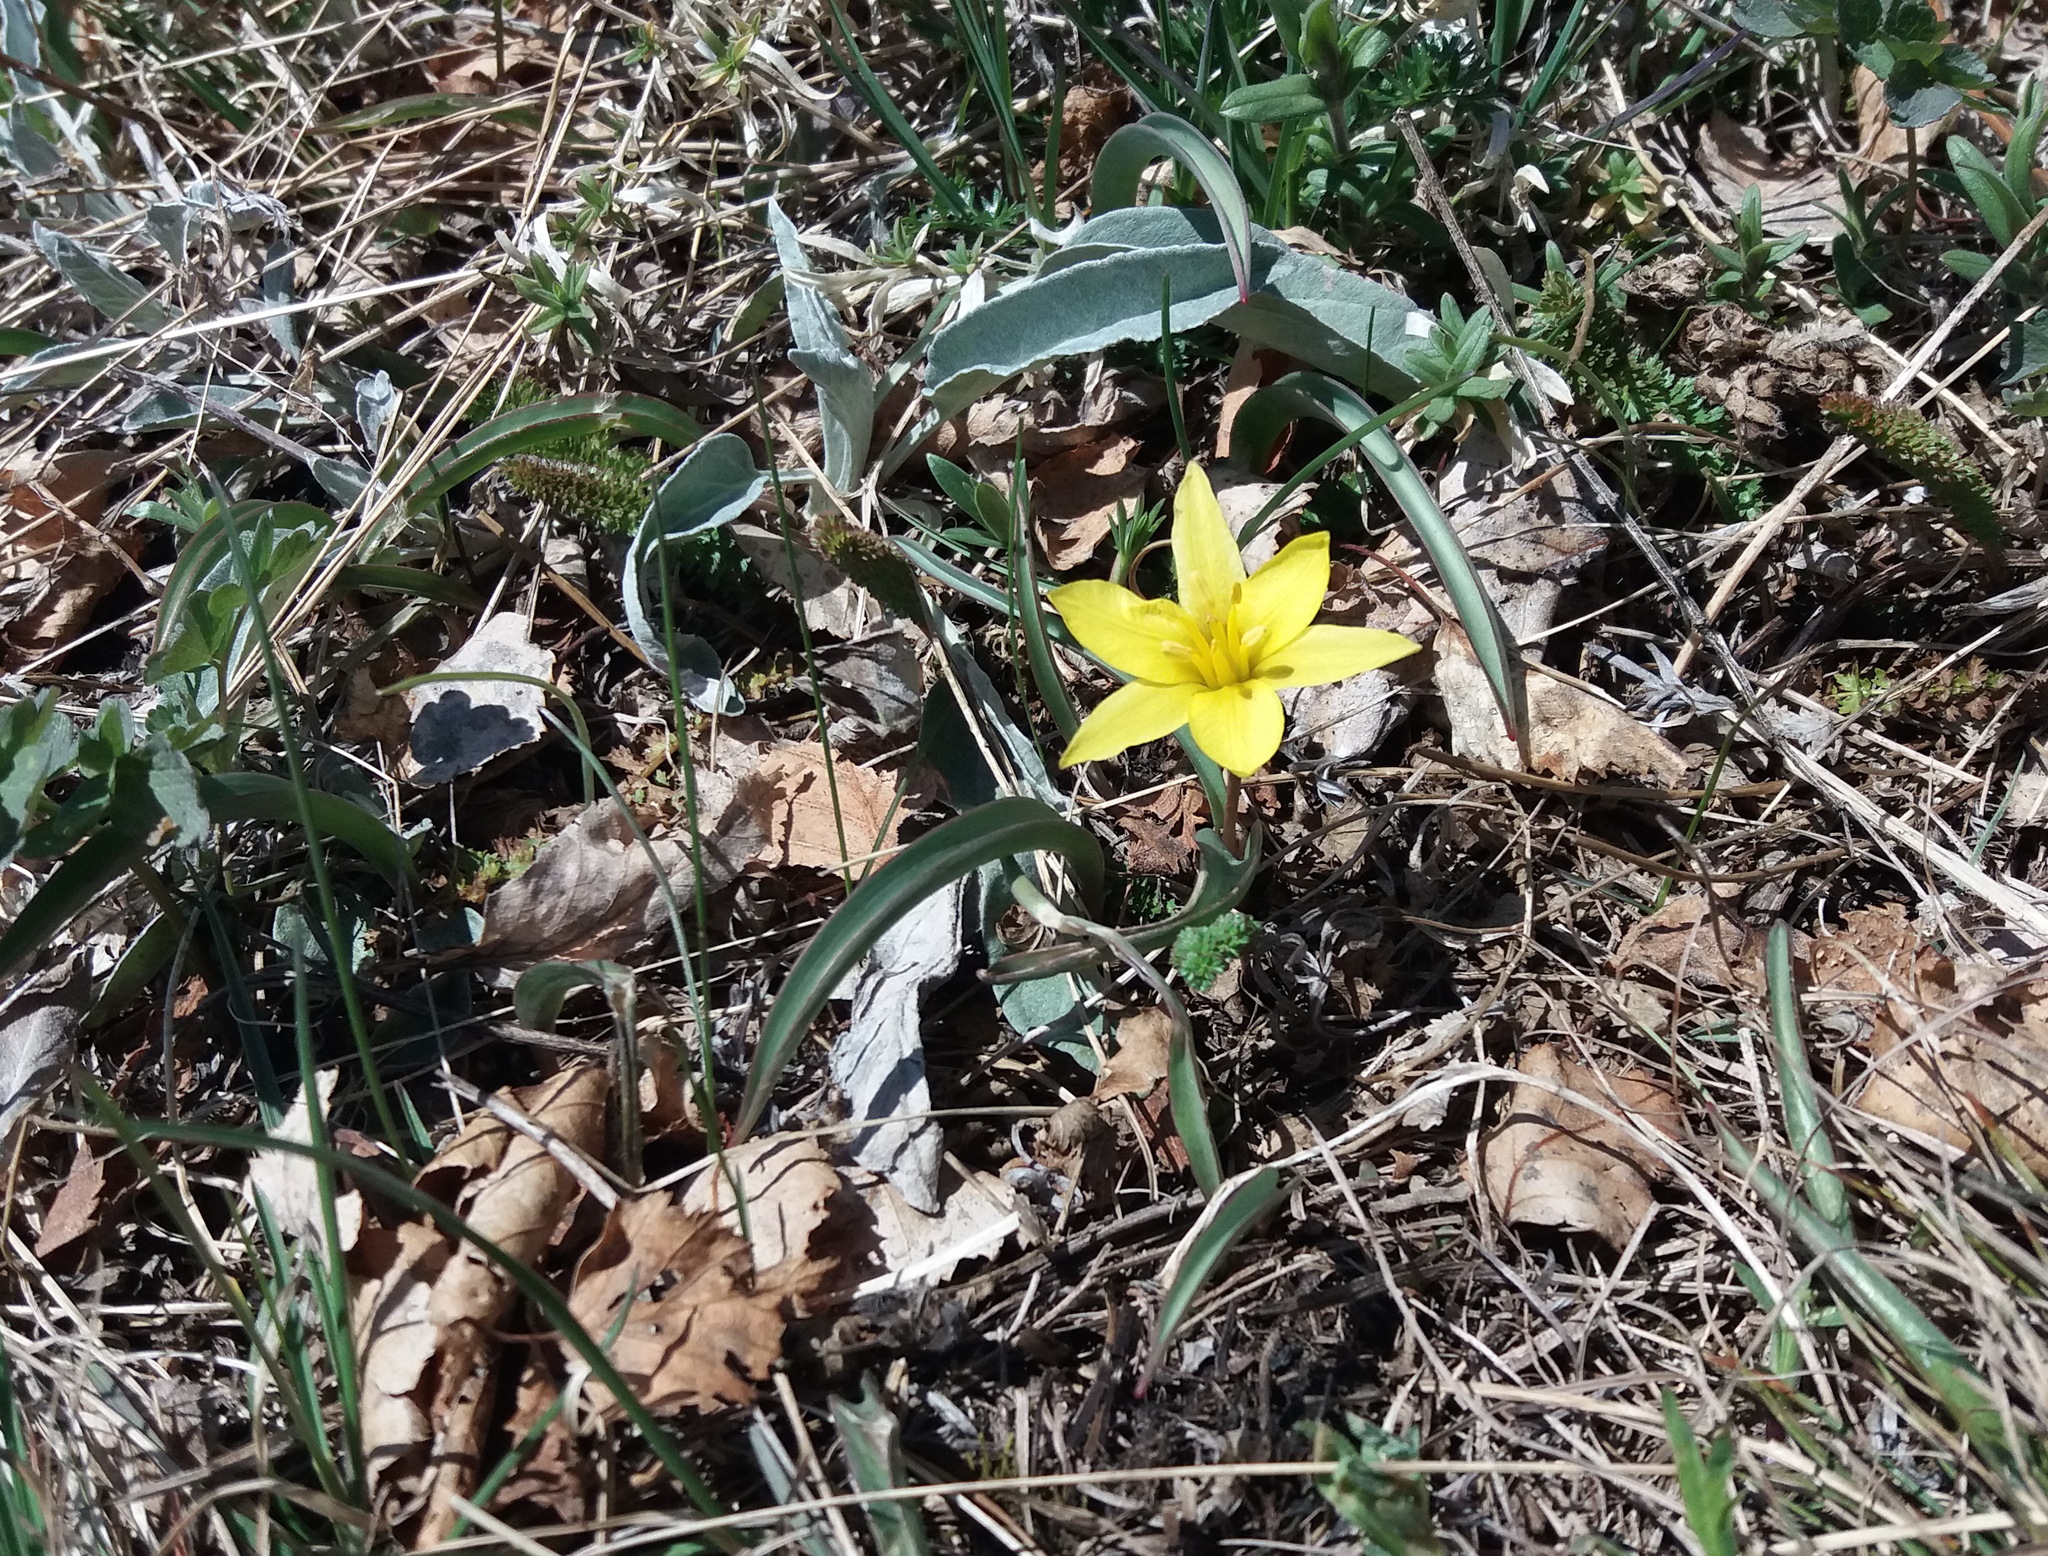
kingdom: Plantae
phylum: Tracheophyta
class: Liliopsida
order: Liliales
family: Liliaceae
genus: Tulipa
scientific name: Tulipa uniflora
